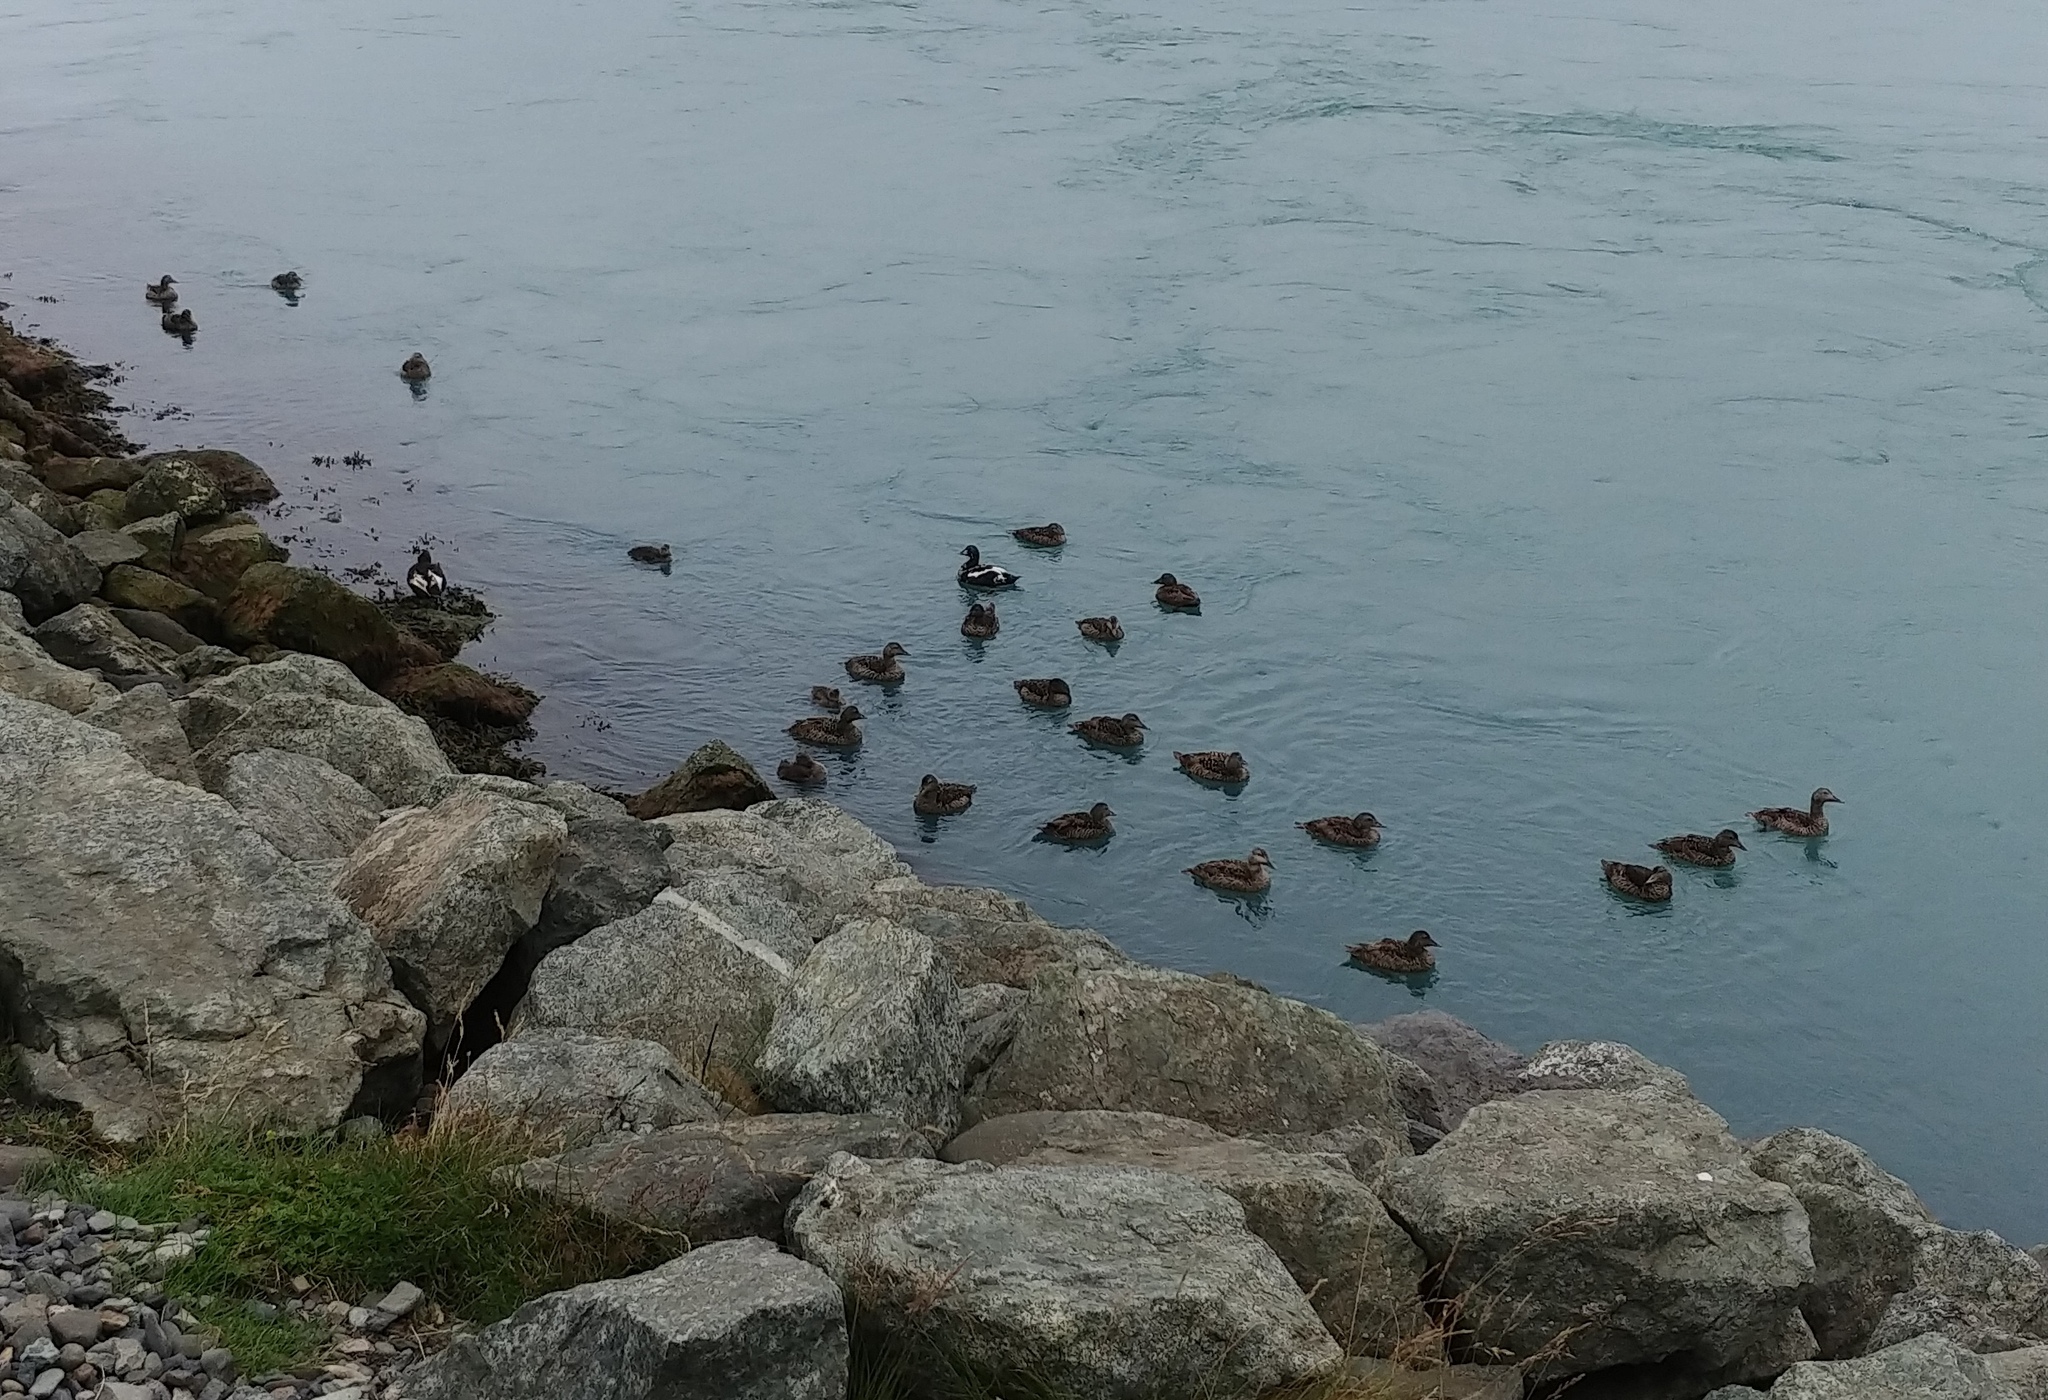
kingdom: Animalia
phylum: Chordata
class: Aves
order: Anseriformes
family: Anatidae
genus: Somateria
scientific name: Somateria mollissima
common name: Common eider
